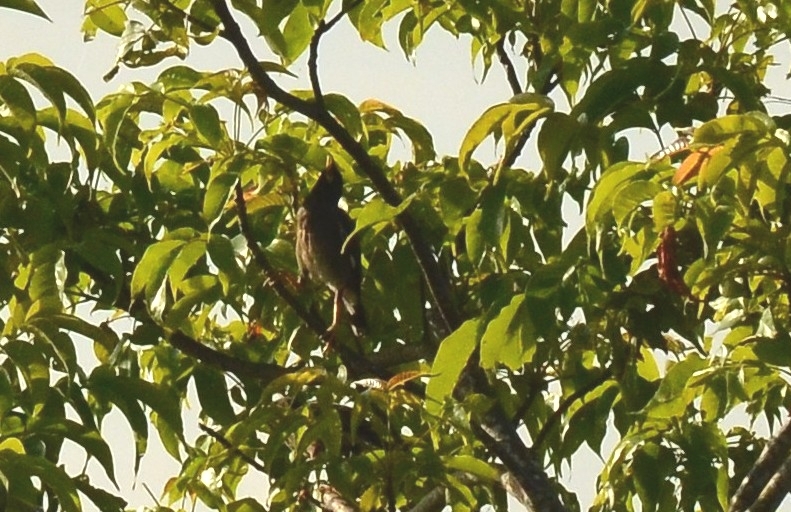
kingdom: Animalia
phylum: Chordata
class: Aves
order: Passeriformes
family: Sturnidae
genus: Acridotheres
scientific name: Acridotheres tristis
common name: Common myna
